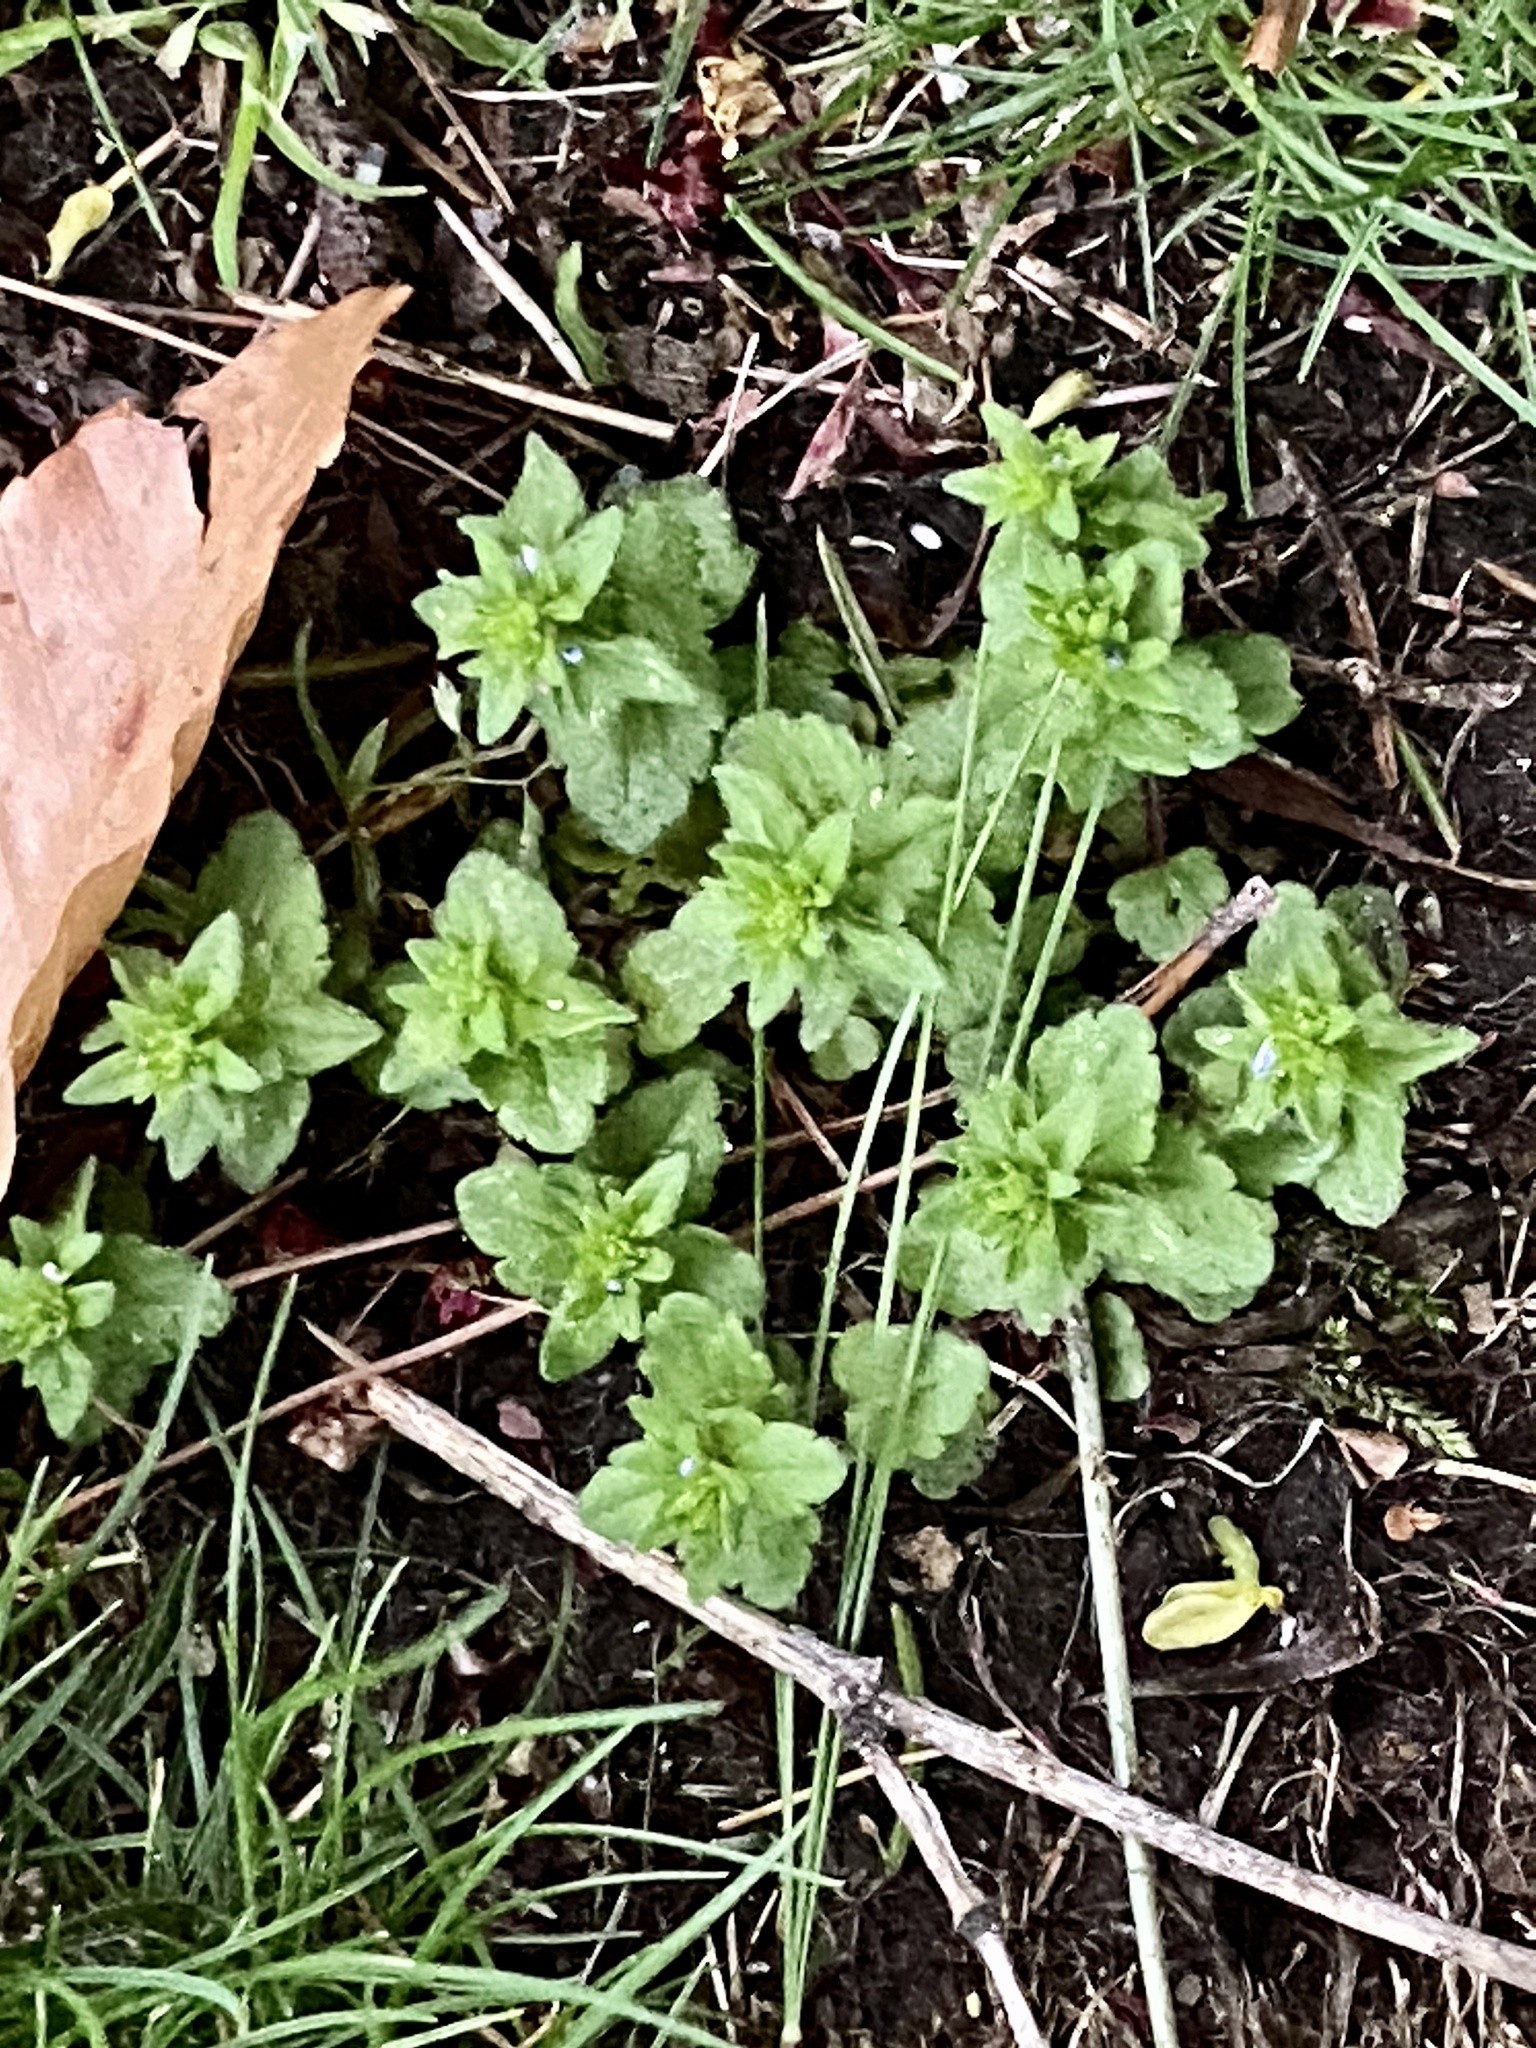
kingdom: Plantae
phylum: Tracheophyta
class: Magnoliopsida
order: Lamiales
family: Plantaginaceae
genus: Veronica
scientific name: Veronica arvensis
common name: Corn speedwell
